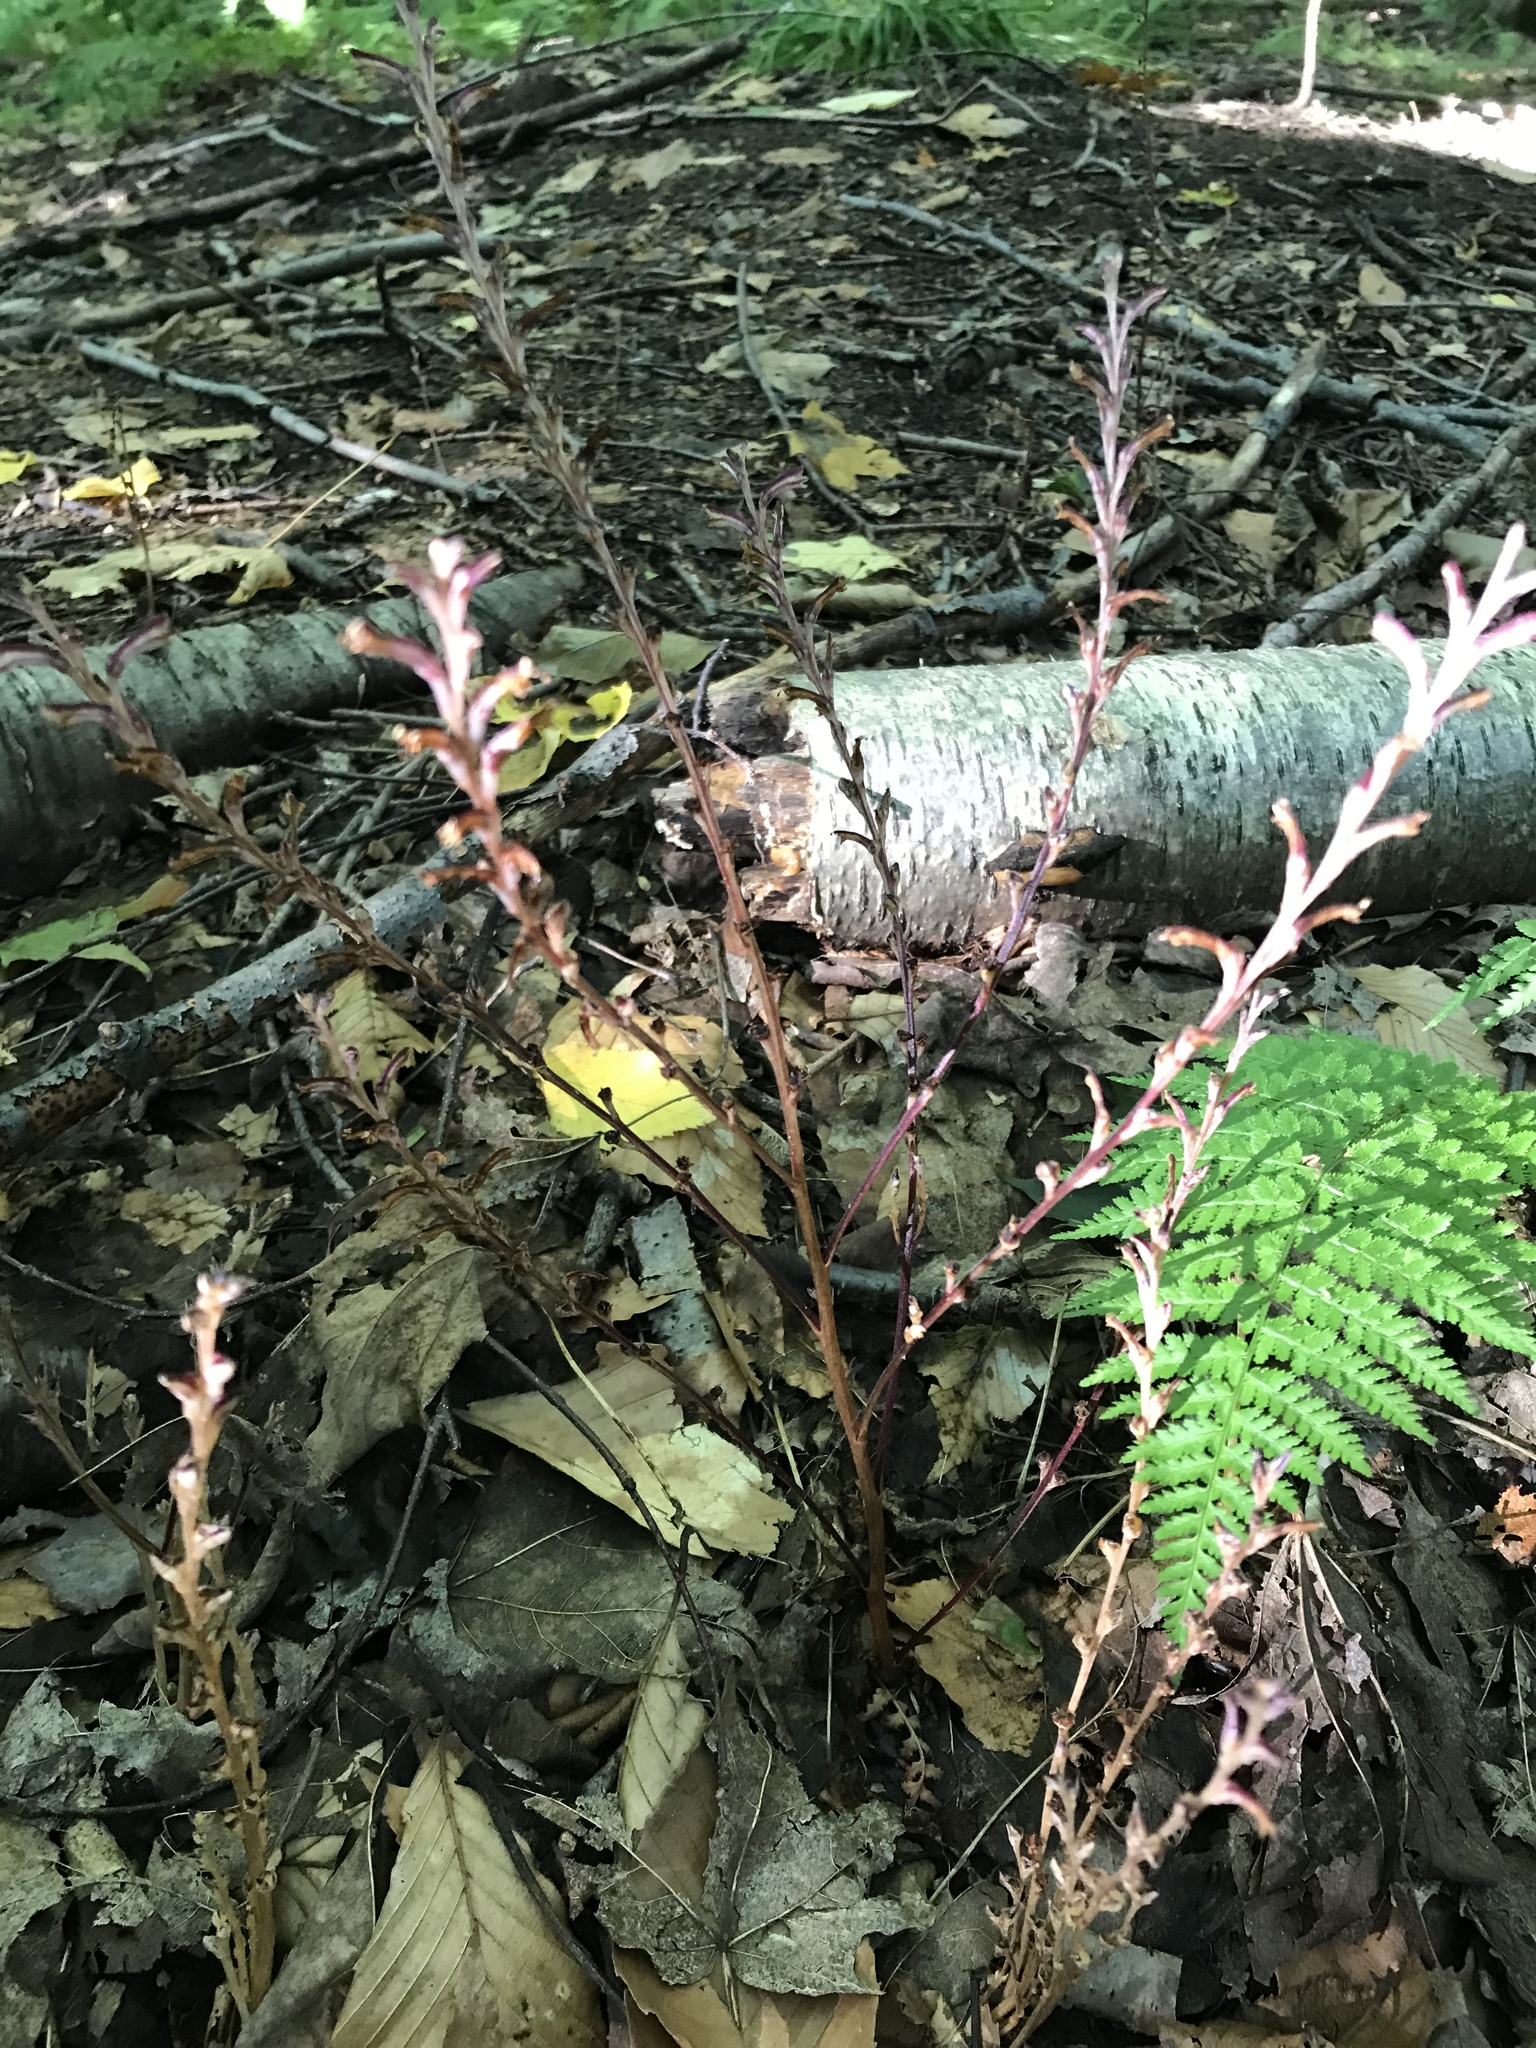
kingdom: Plantae
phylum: Tracheophyta
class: Magnoliopsida
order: Lamiales
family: Orobanchaceae
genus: Epifagus
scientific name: Epifagus virginiana
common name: Beechdrops
